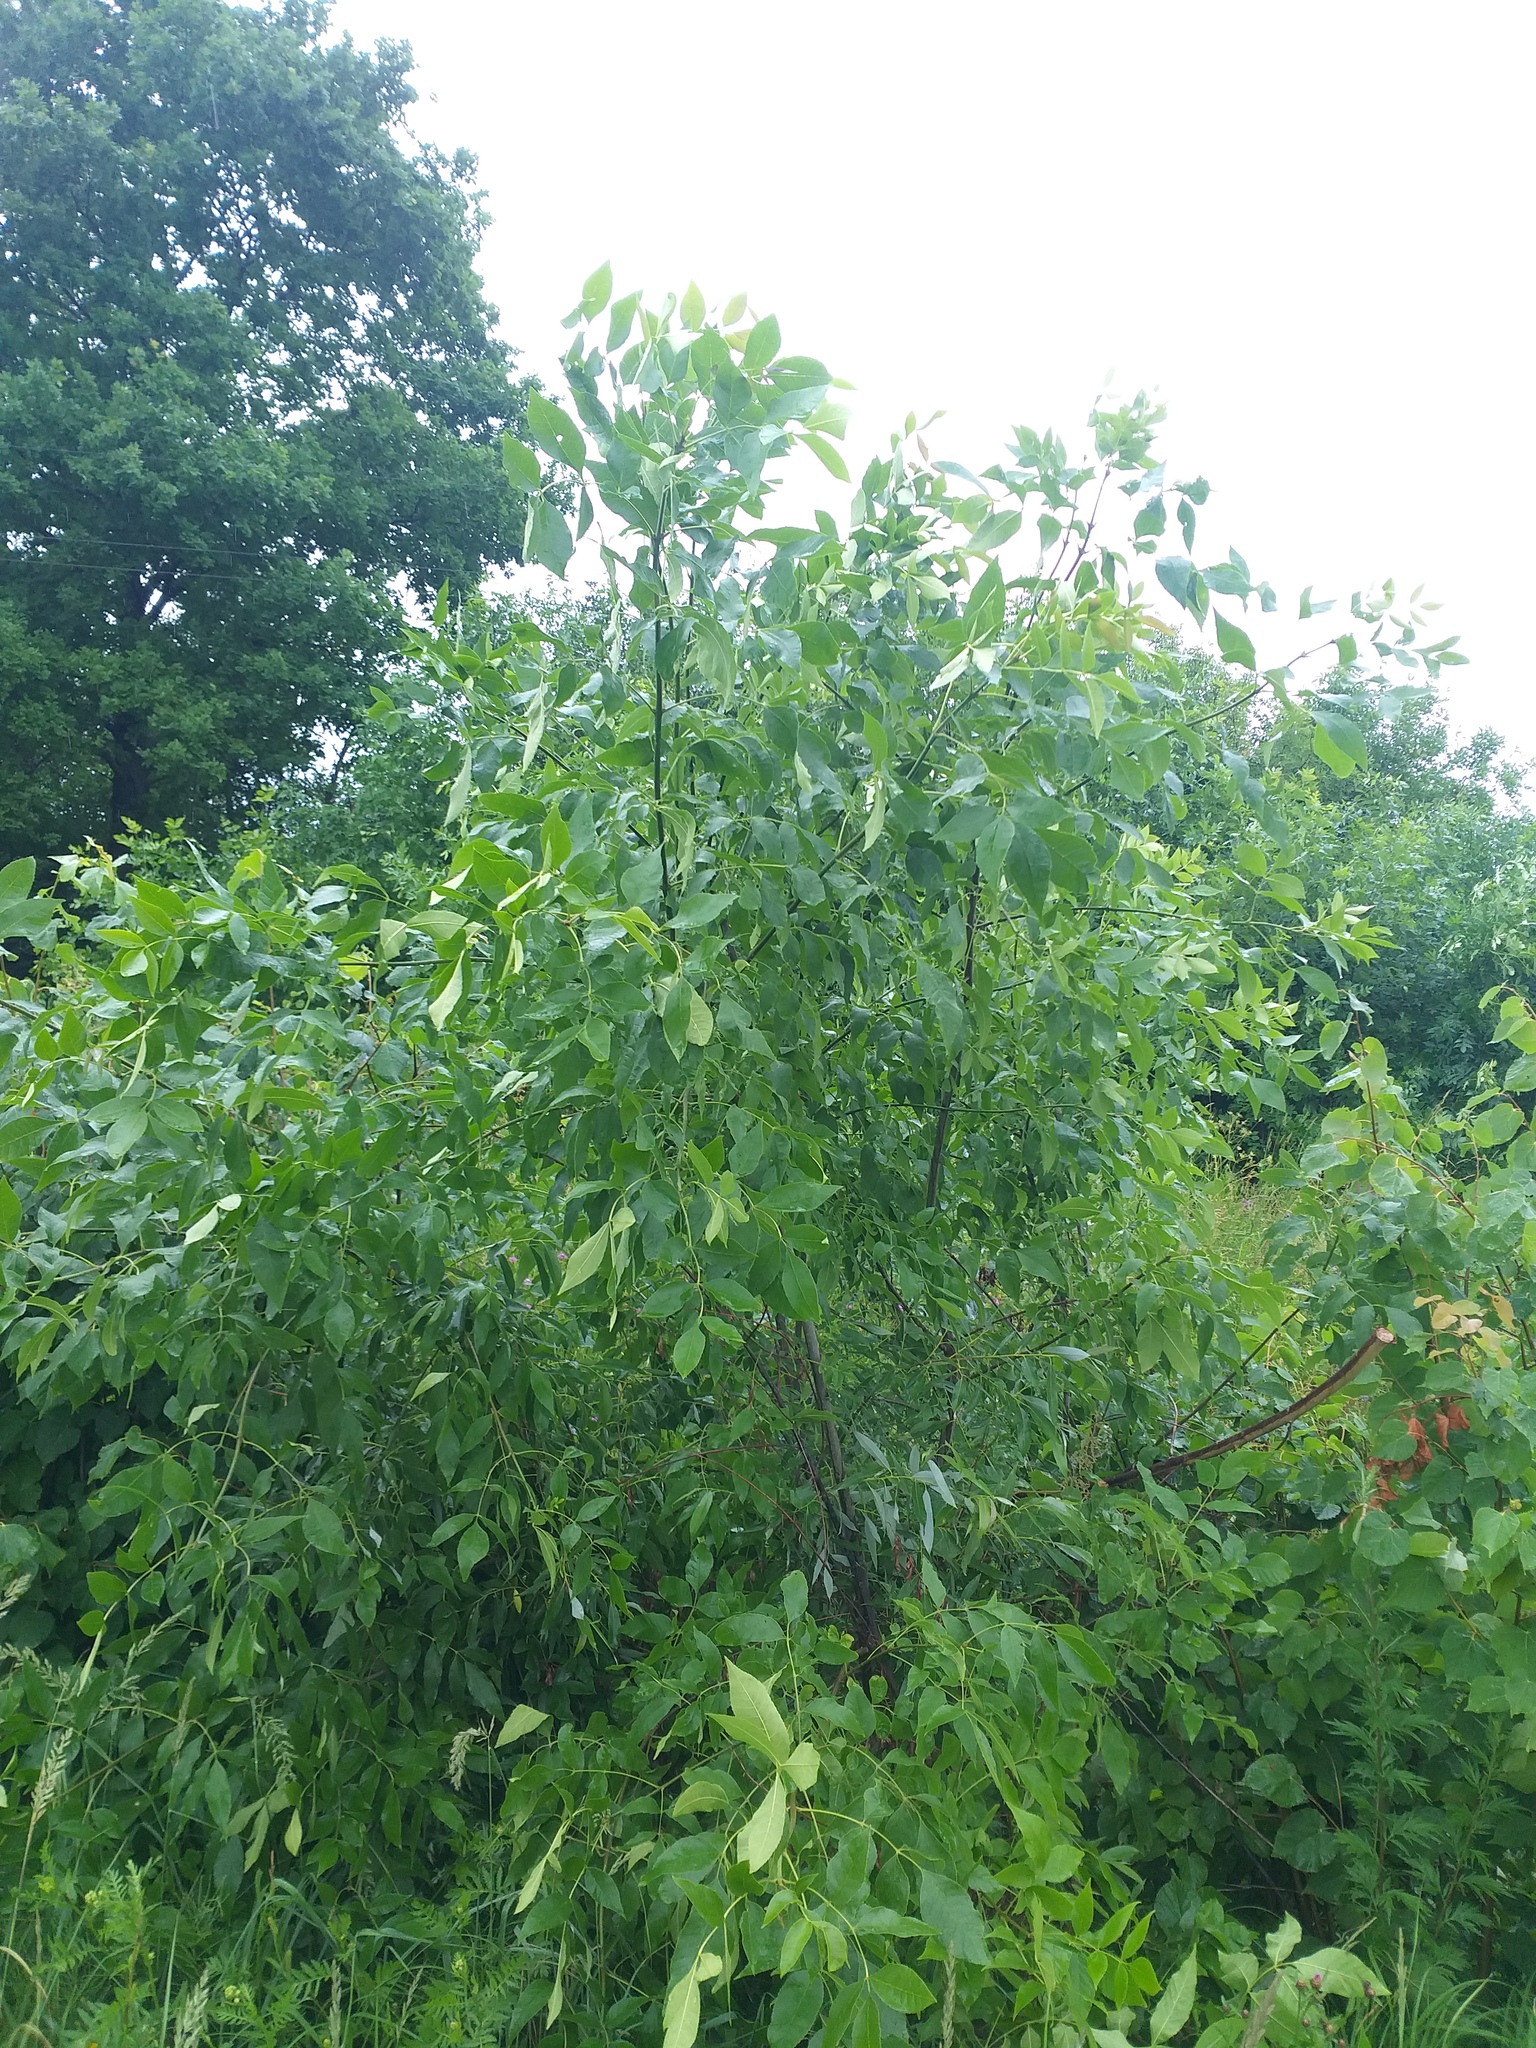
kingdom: Plantae
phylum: Tracheophyta
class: Magnoliopsida
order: Lamiales
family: Oleaceae
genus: Fraxinus
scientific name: Fraxinus pennsylvanica
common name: Green ash
